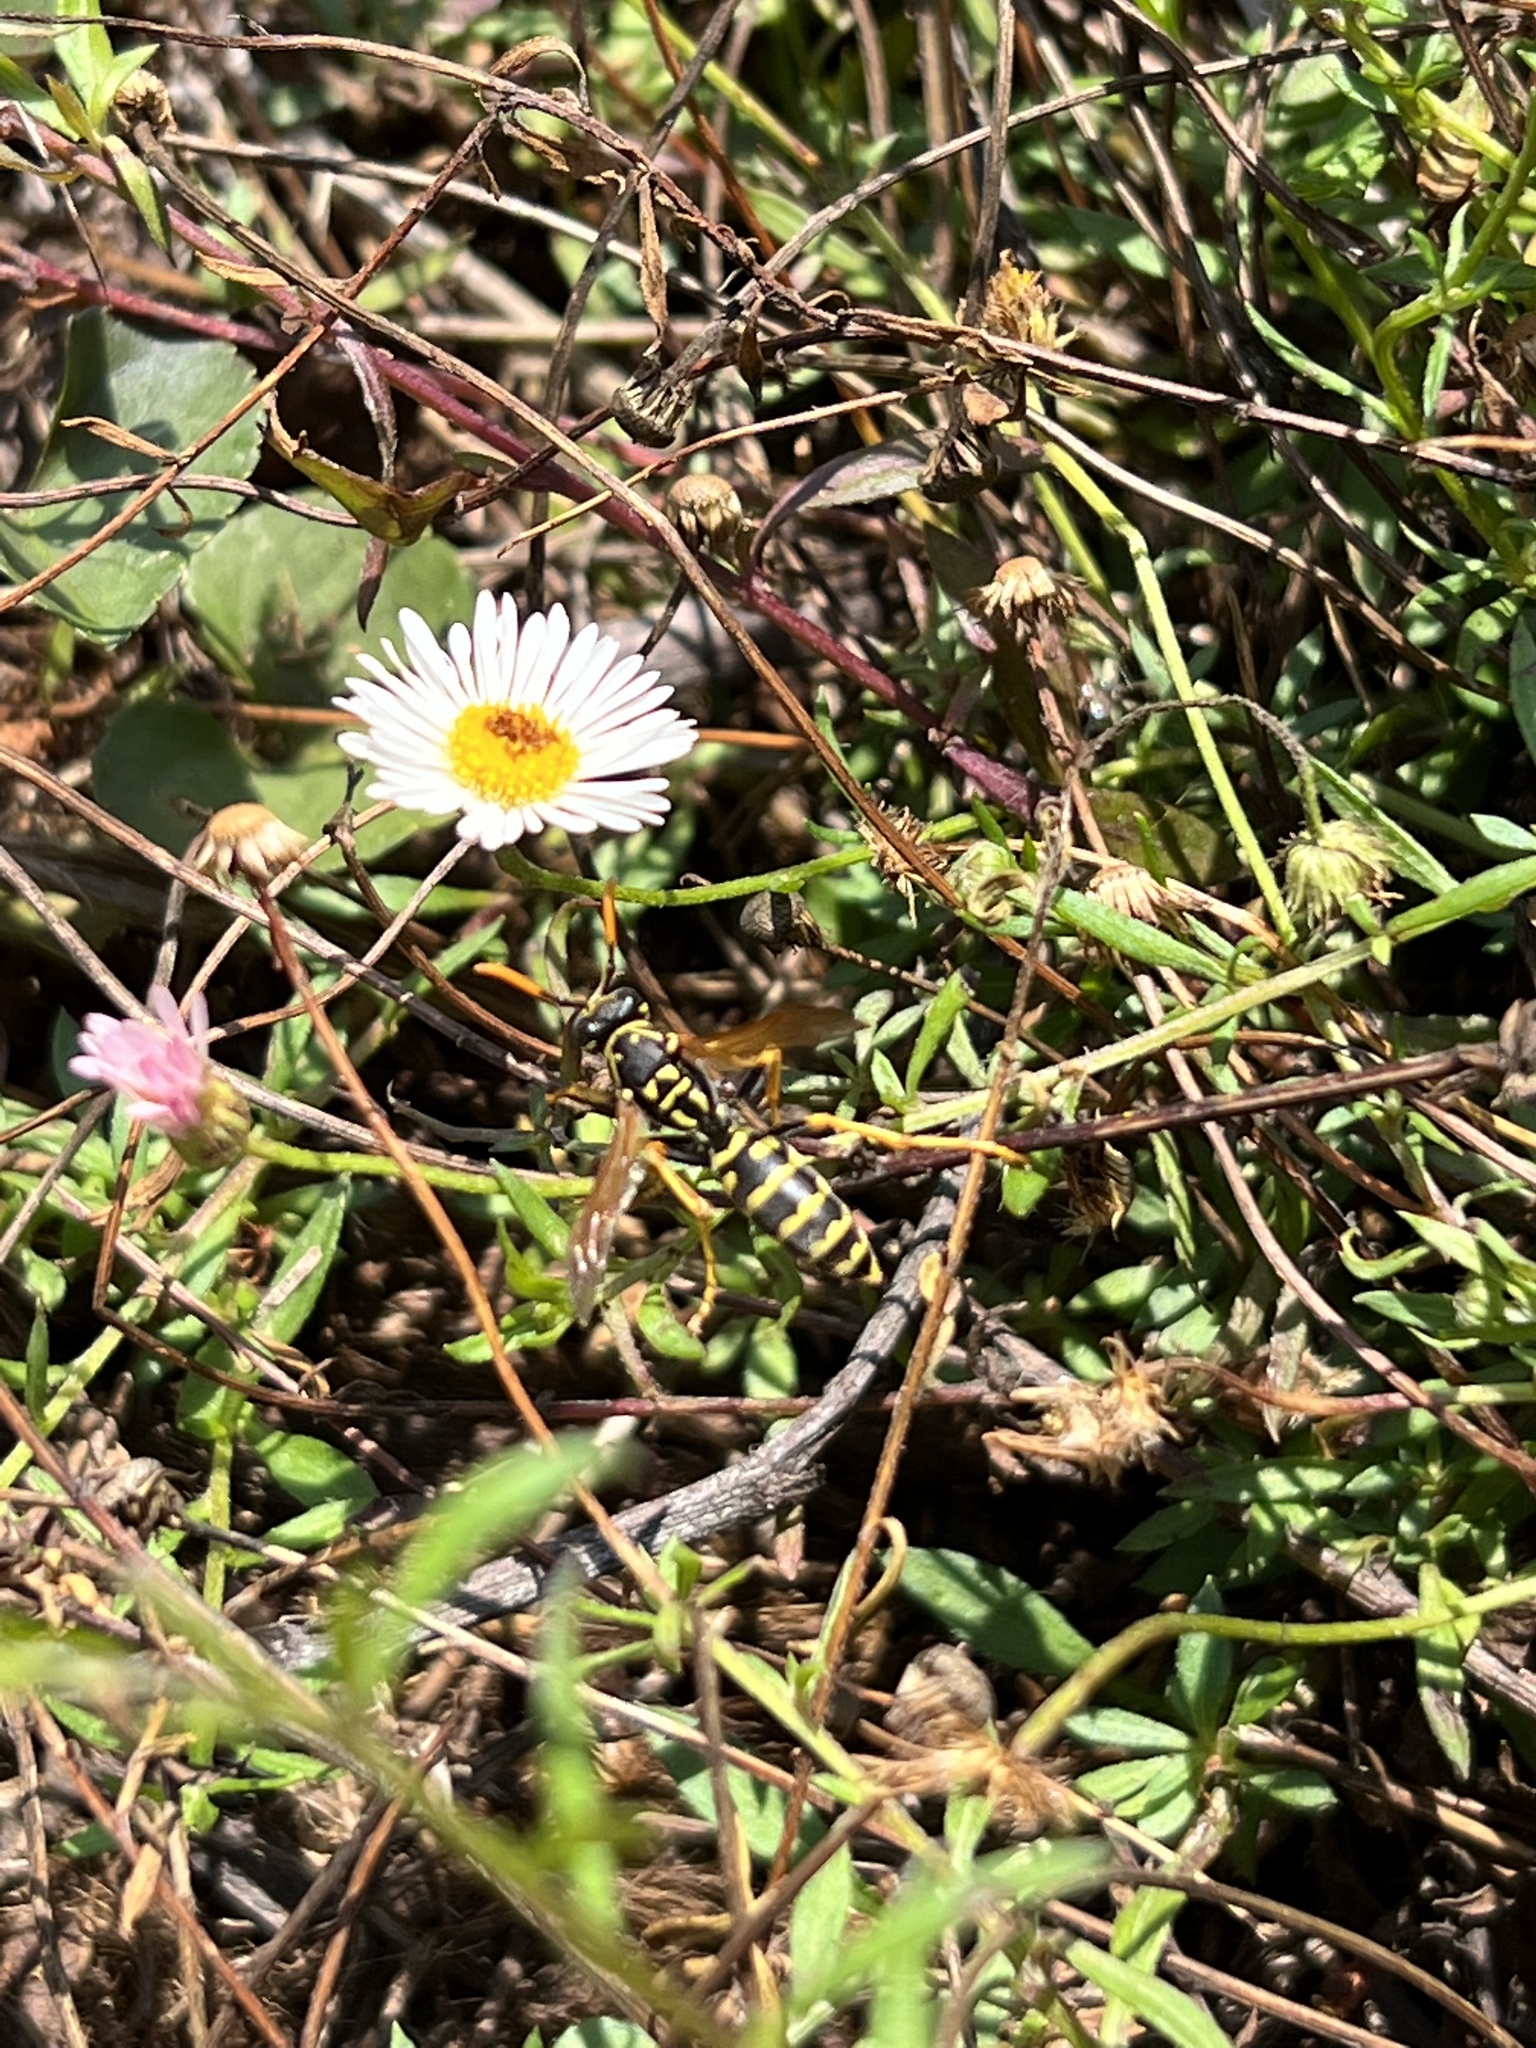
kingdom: Animalia
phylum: Arthropoda
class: Insecta
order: Hymenoptera
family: Eumenidae
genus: Polistes
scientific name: Polistes dominula
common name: Paper wasp
